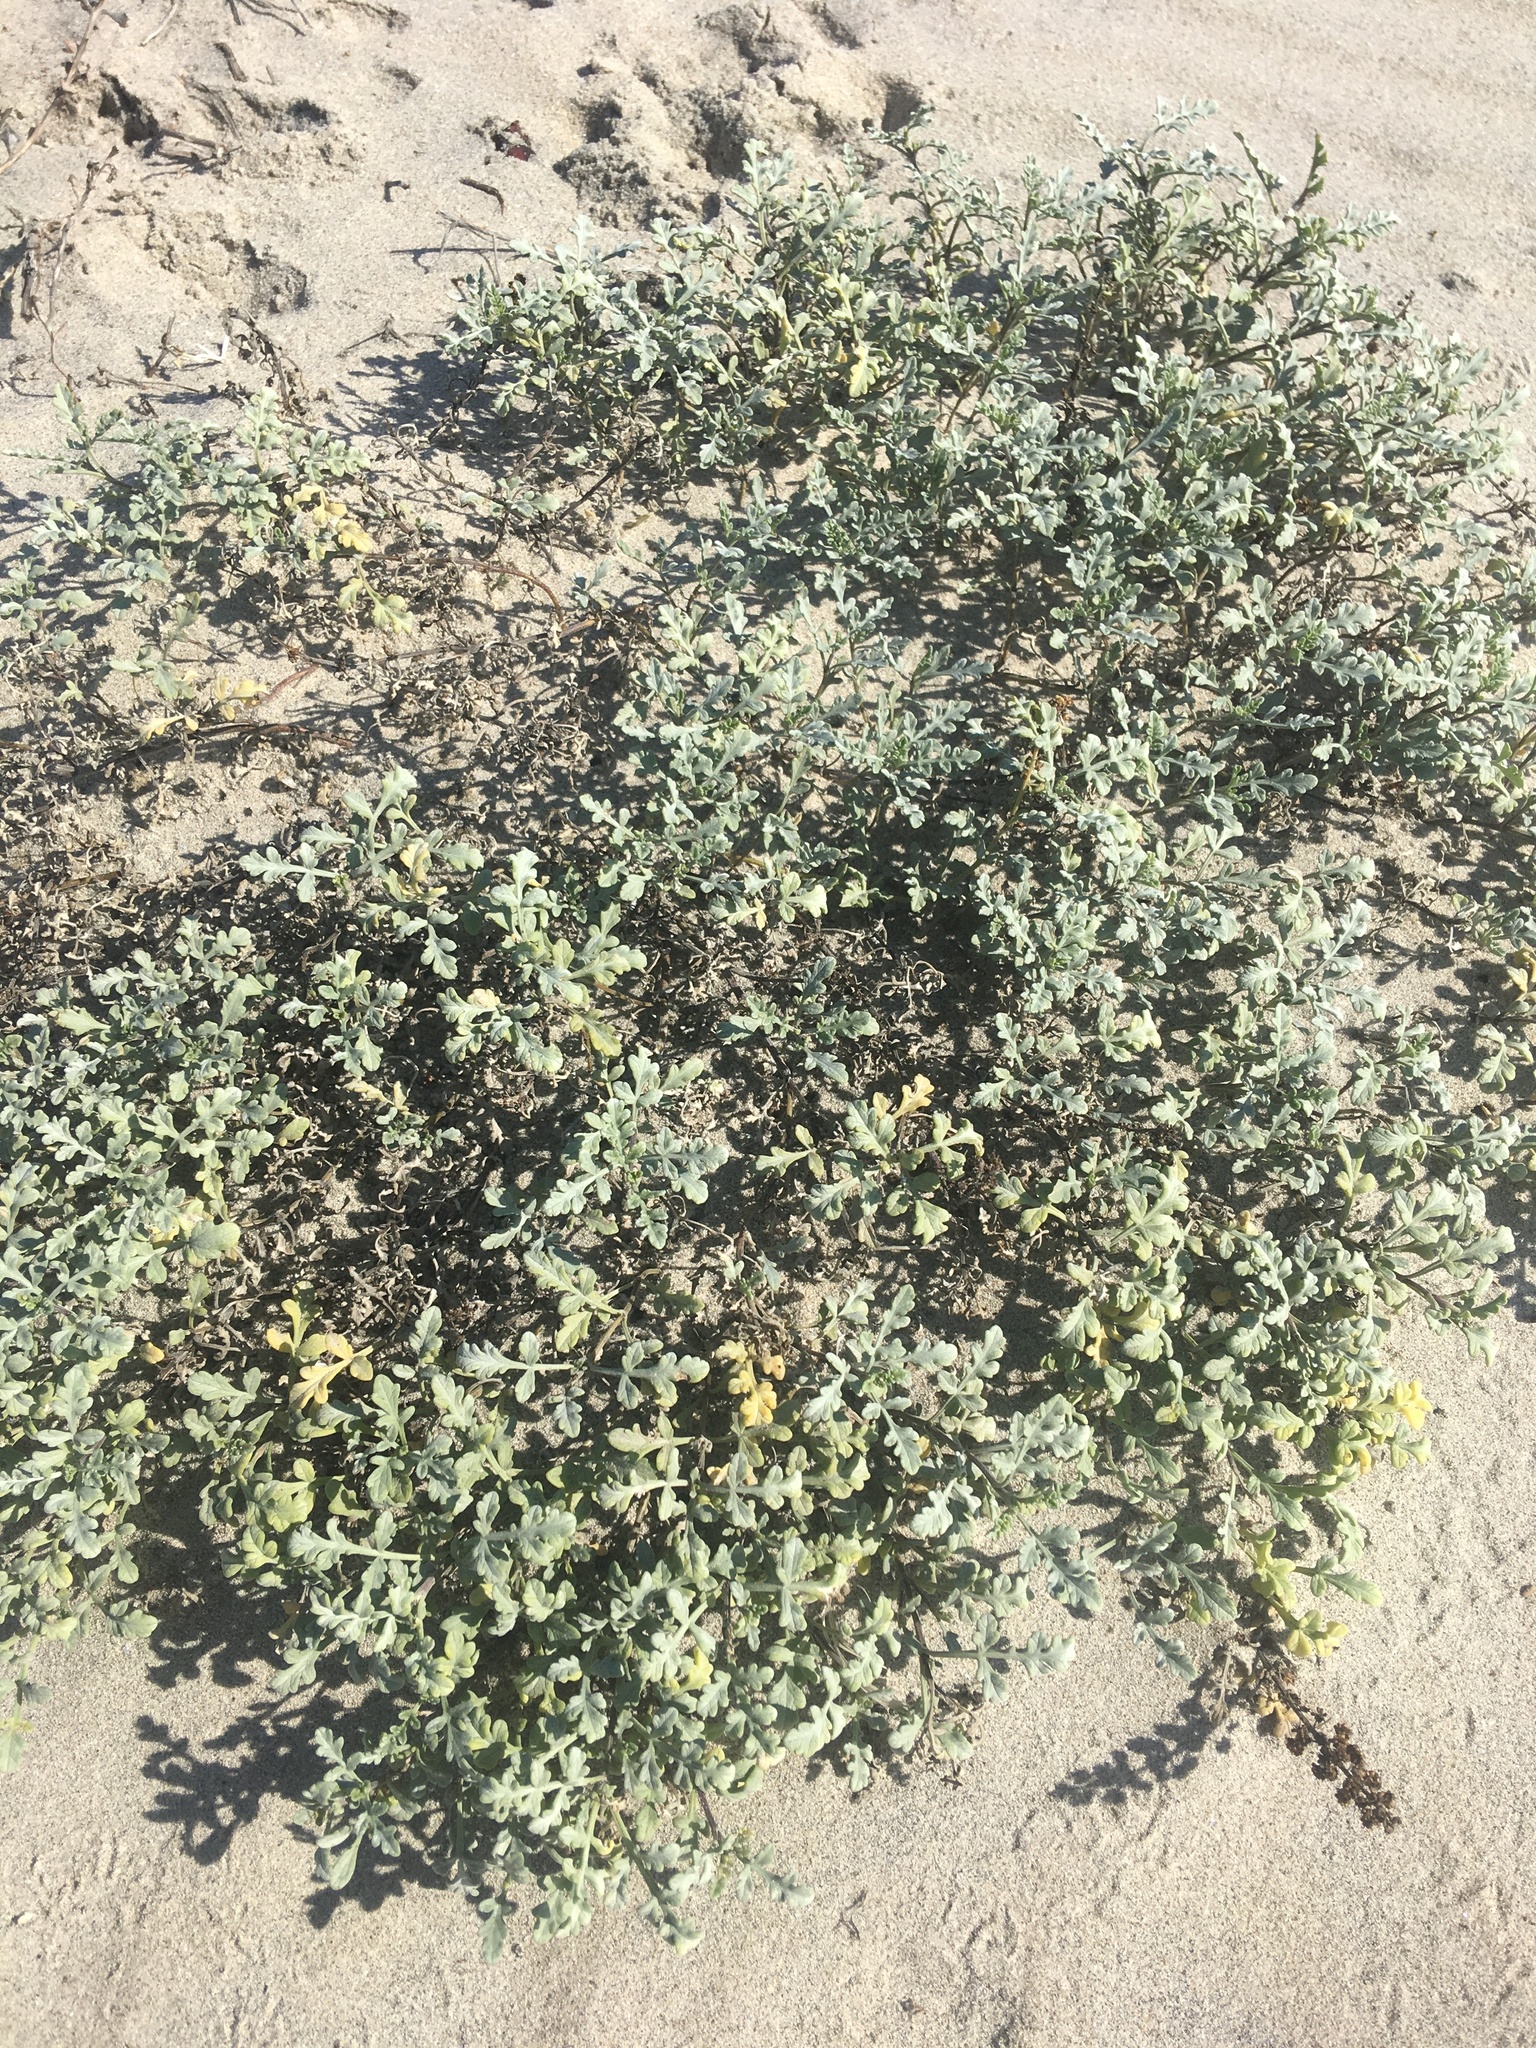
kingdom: Plantae
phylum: Tracheophyta
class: Magnoliopsida
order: Asterales
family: Asteraceae
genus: Ambrosia
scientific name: Ambrosia chamissonis
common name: Beachbur
